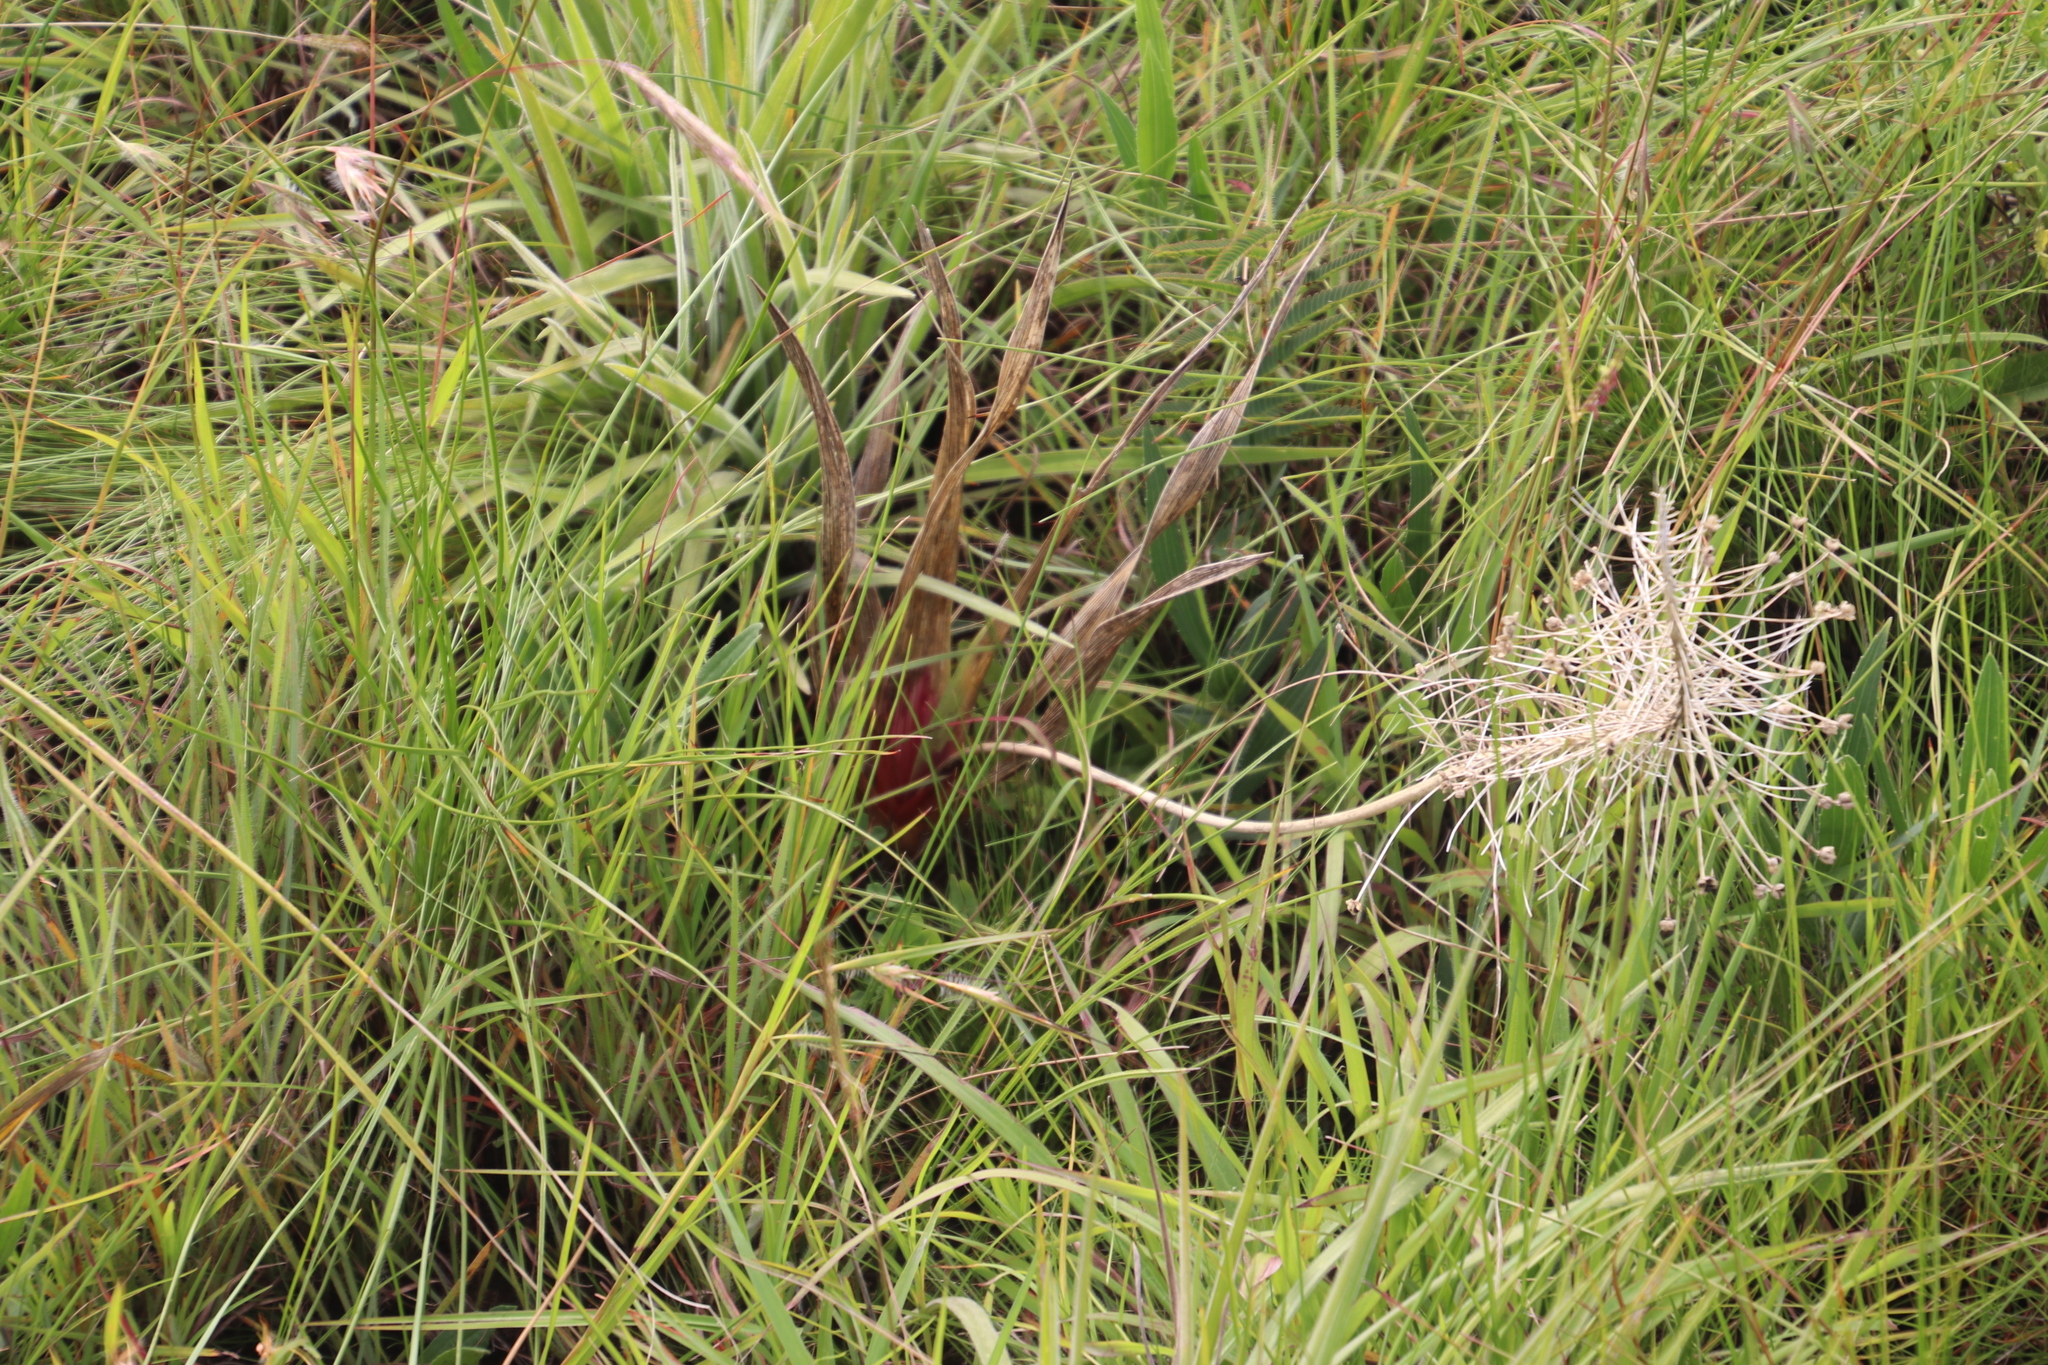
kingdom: Plantae
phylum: Tracheophyta
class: Liliopsida
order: Asparagales
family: Asparagaceae
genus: Schizocarphus
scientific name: Schizocarphus nervosus
